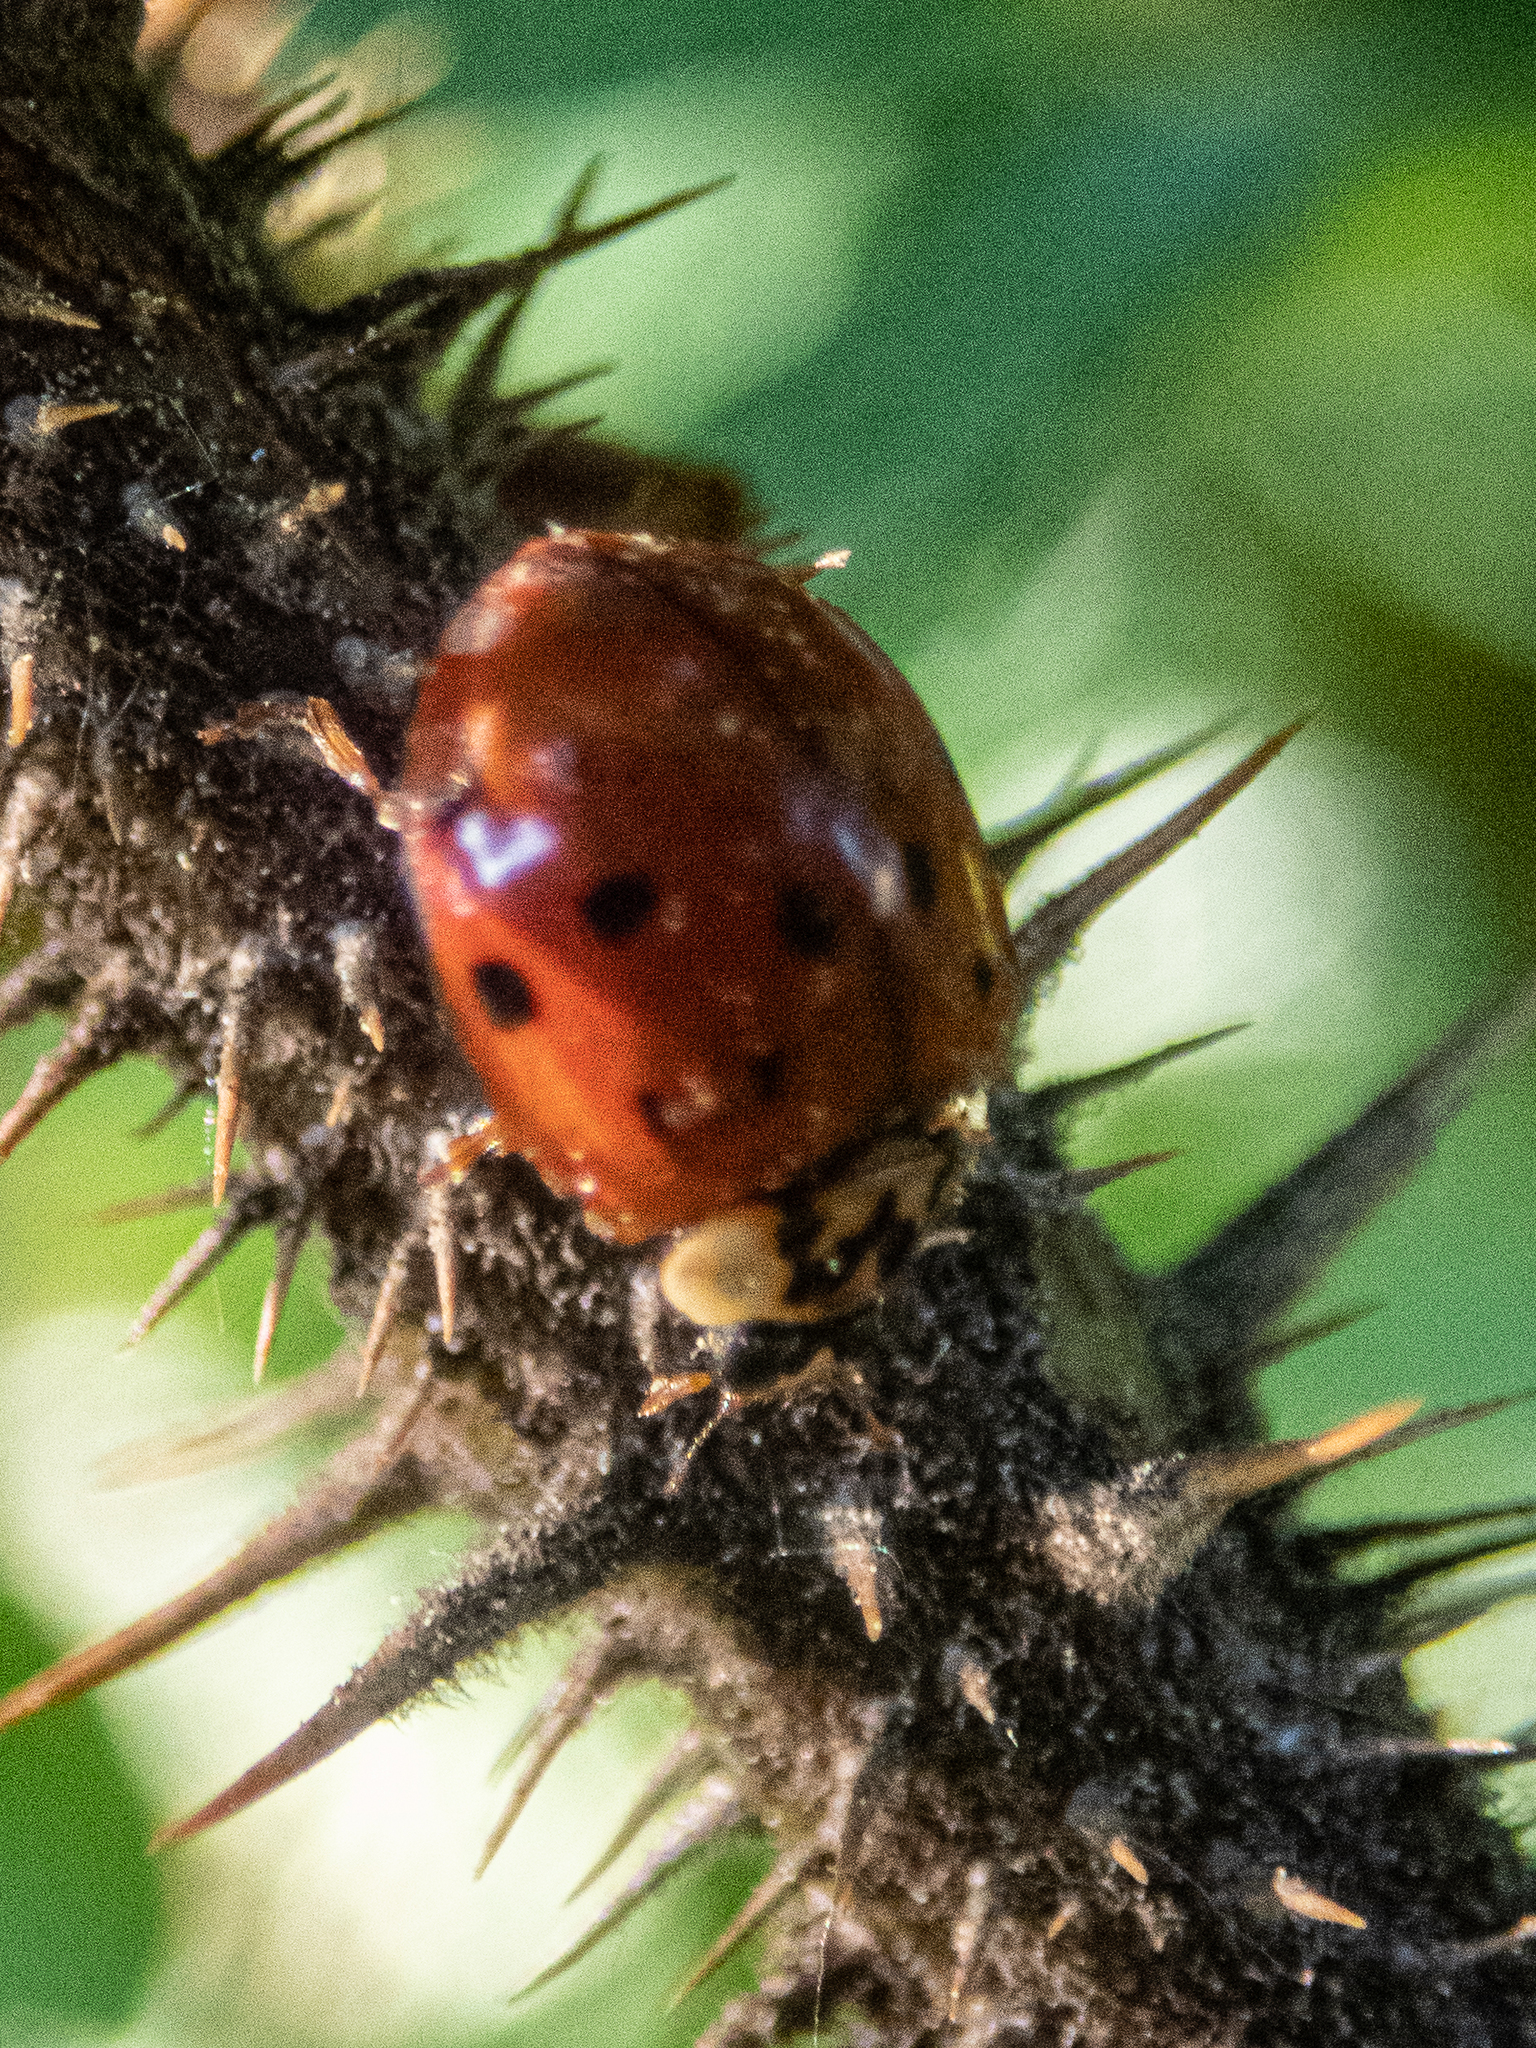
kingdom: Animalia
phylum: Arthropoda
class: Insecta
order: Coleoptera
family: Coccinellidae
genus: Harmonia
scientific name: Harmonia axyridis
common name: Harlequin ladybird
